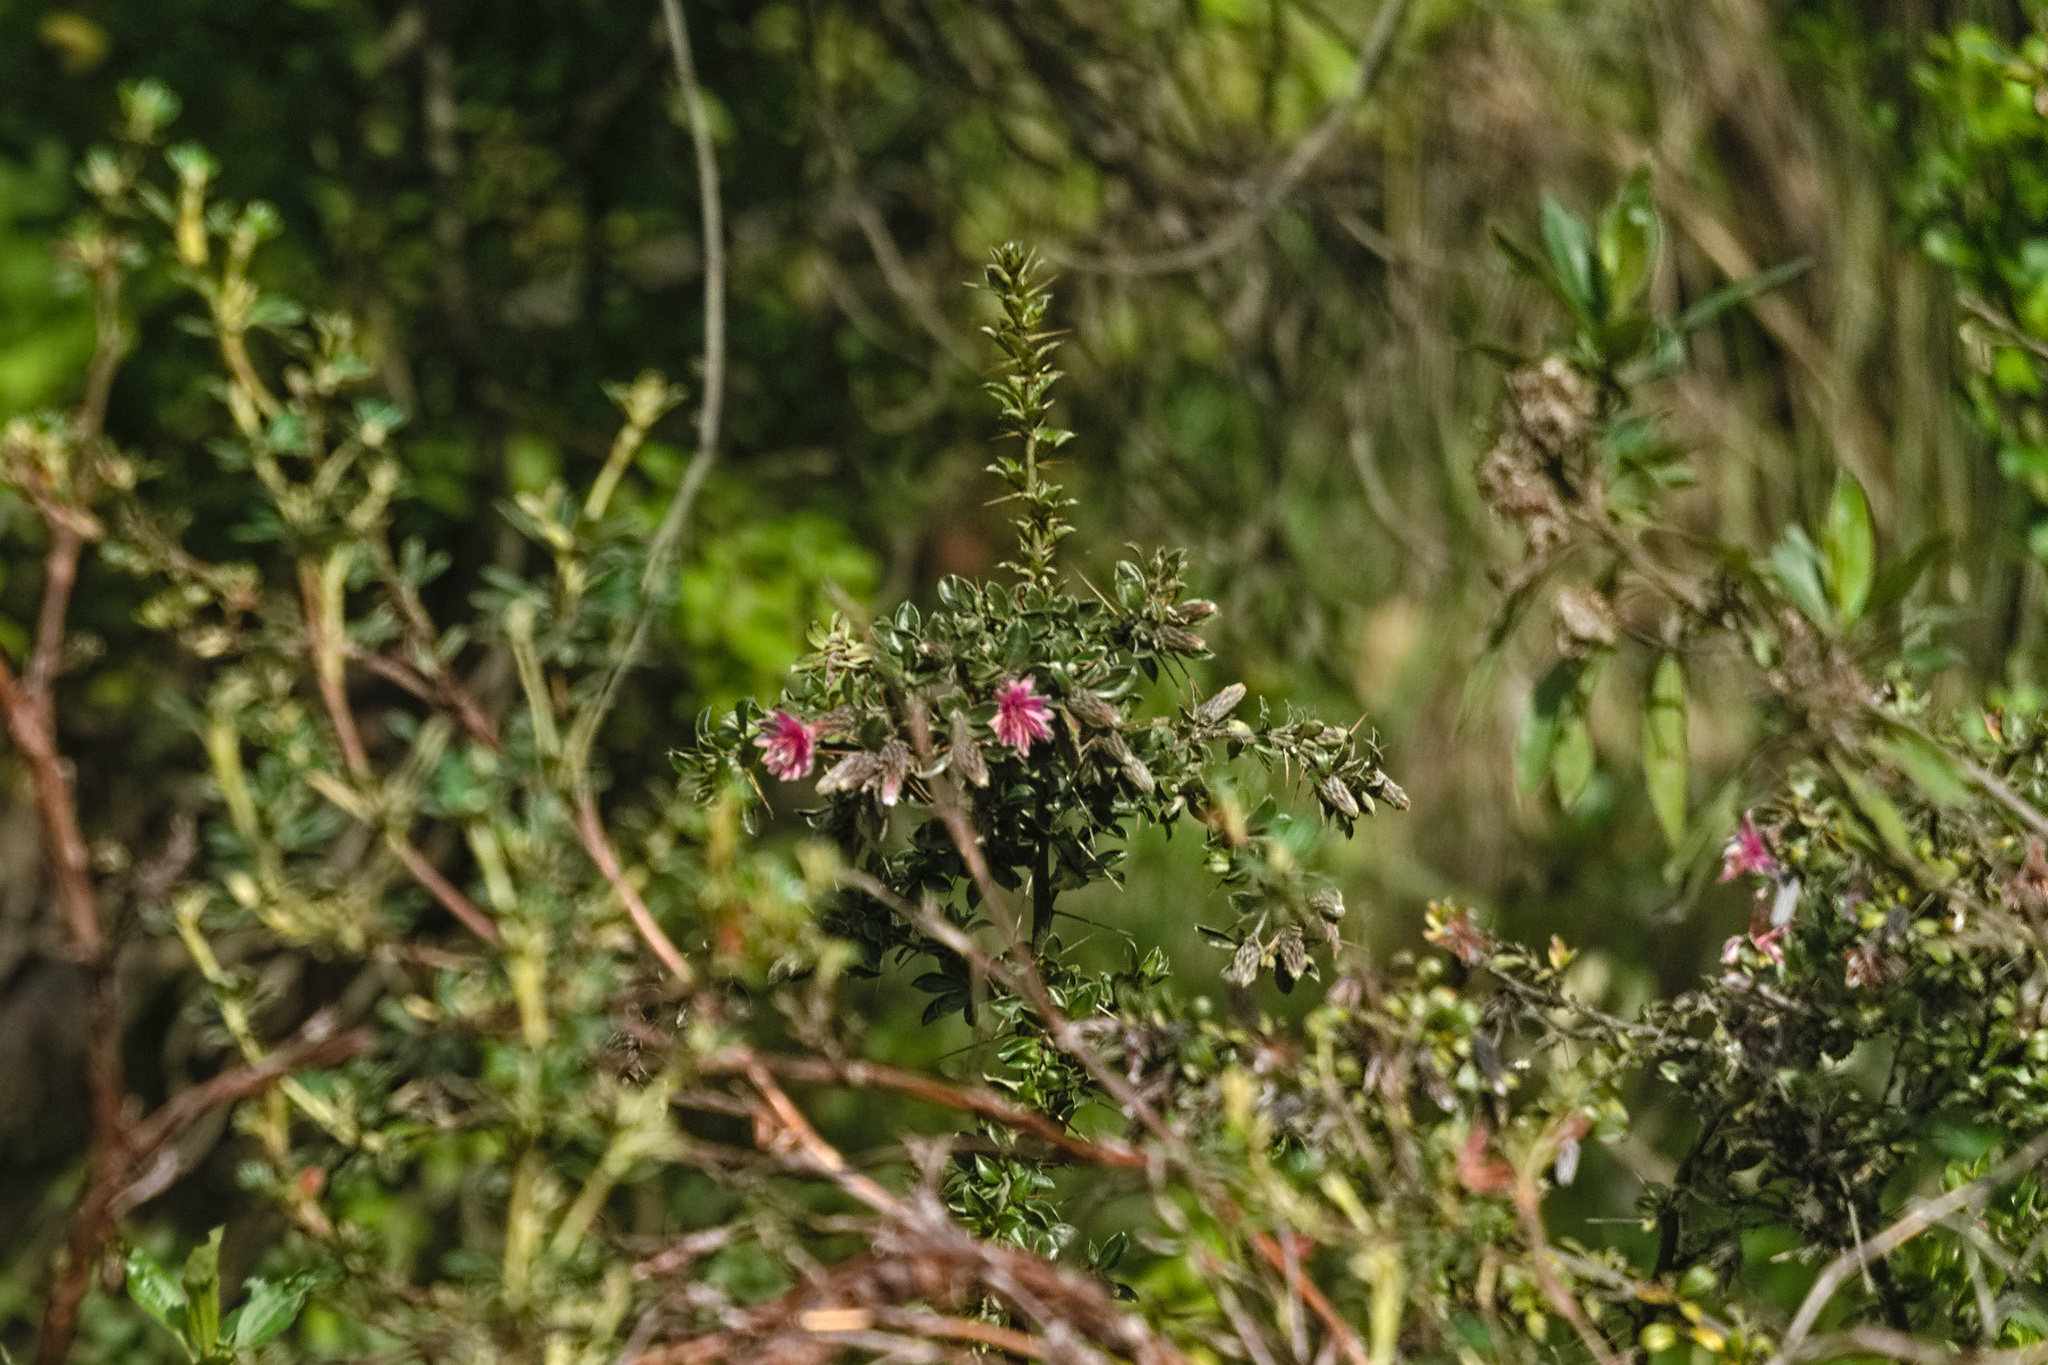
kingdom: Plantae
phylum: Tracheophyta
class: Magnoliopsida
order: Asterales
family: Asteraceae
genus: Barnadesia
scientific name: Barnadesia arborea
